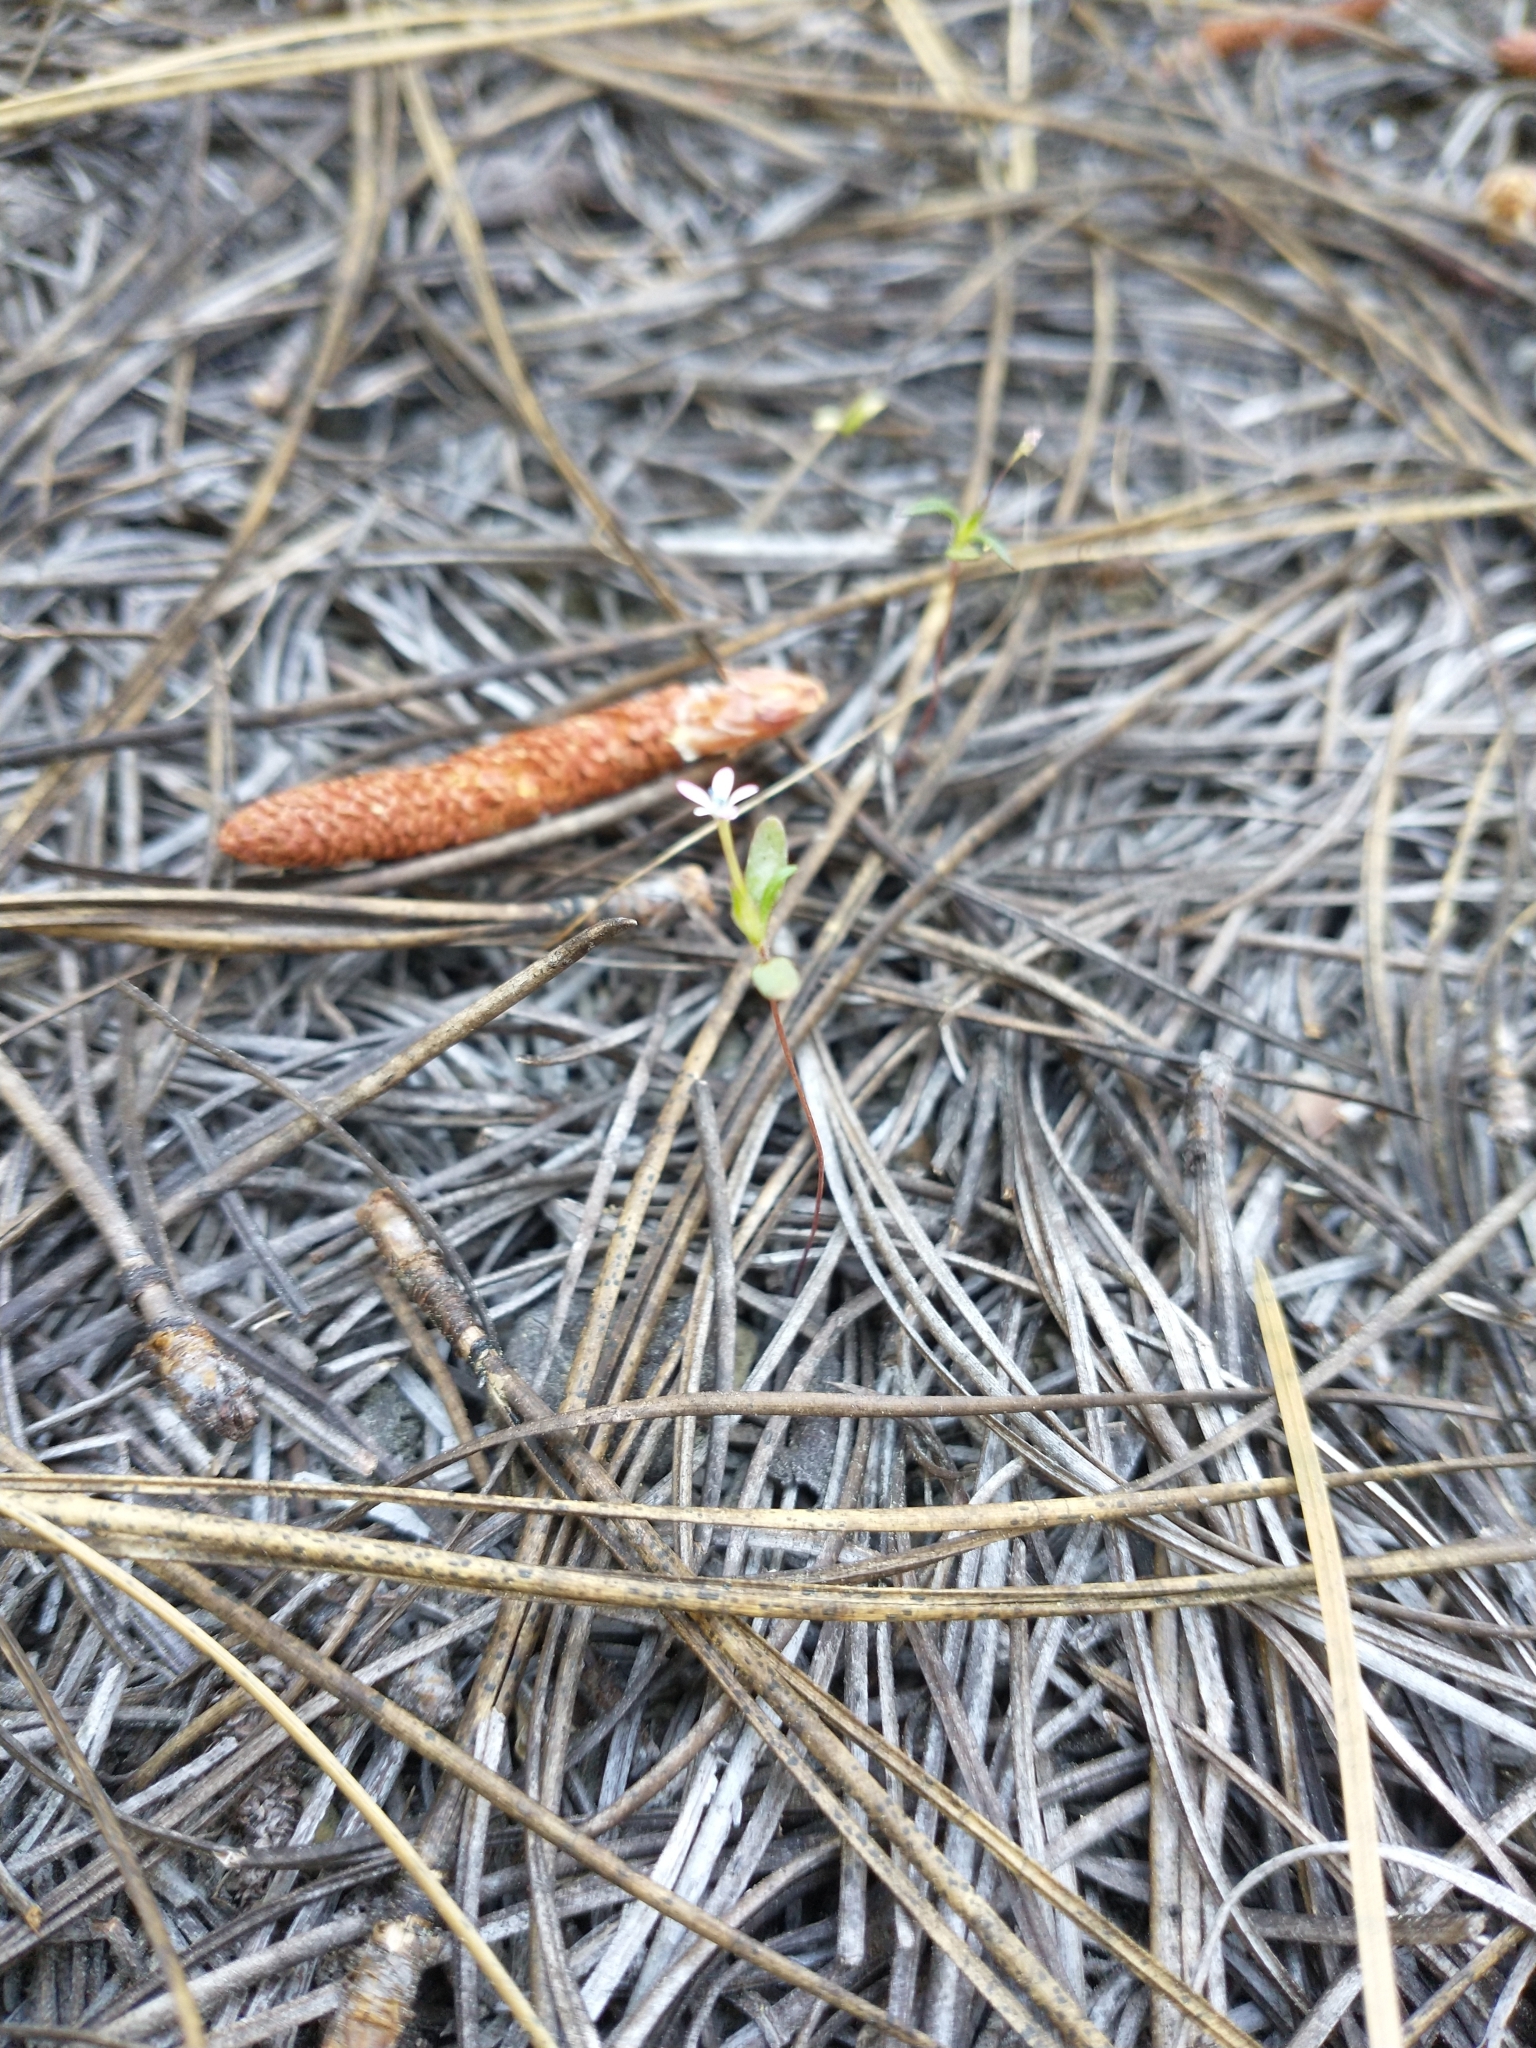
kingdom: Plantae
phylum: Tracheophyta
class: Magnoliopsida
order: Ericales
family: Polemoniaceae
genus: Collomia
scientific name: Collomia tinctoria
